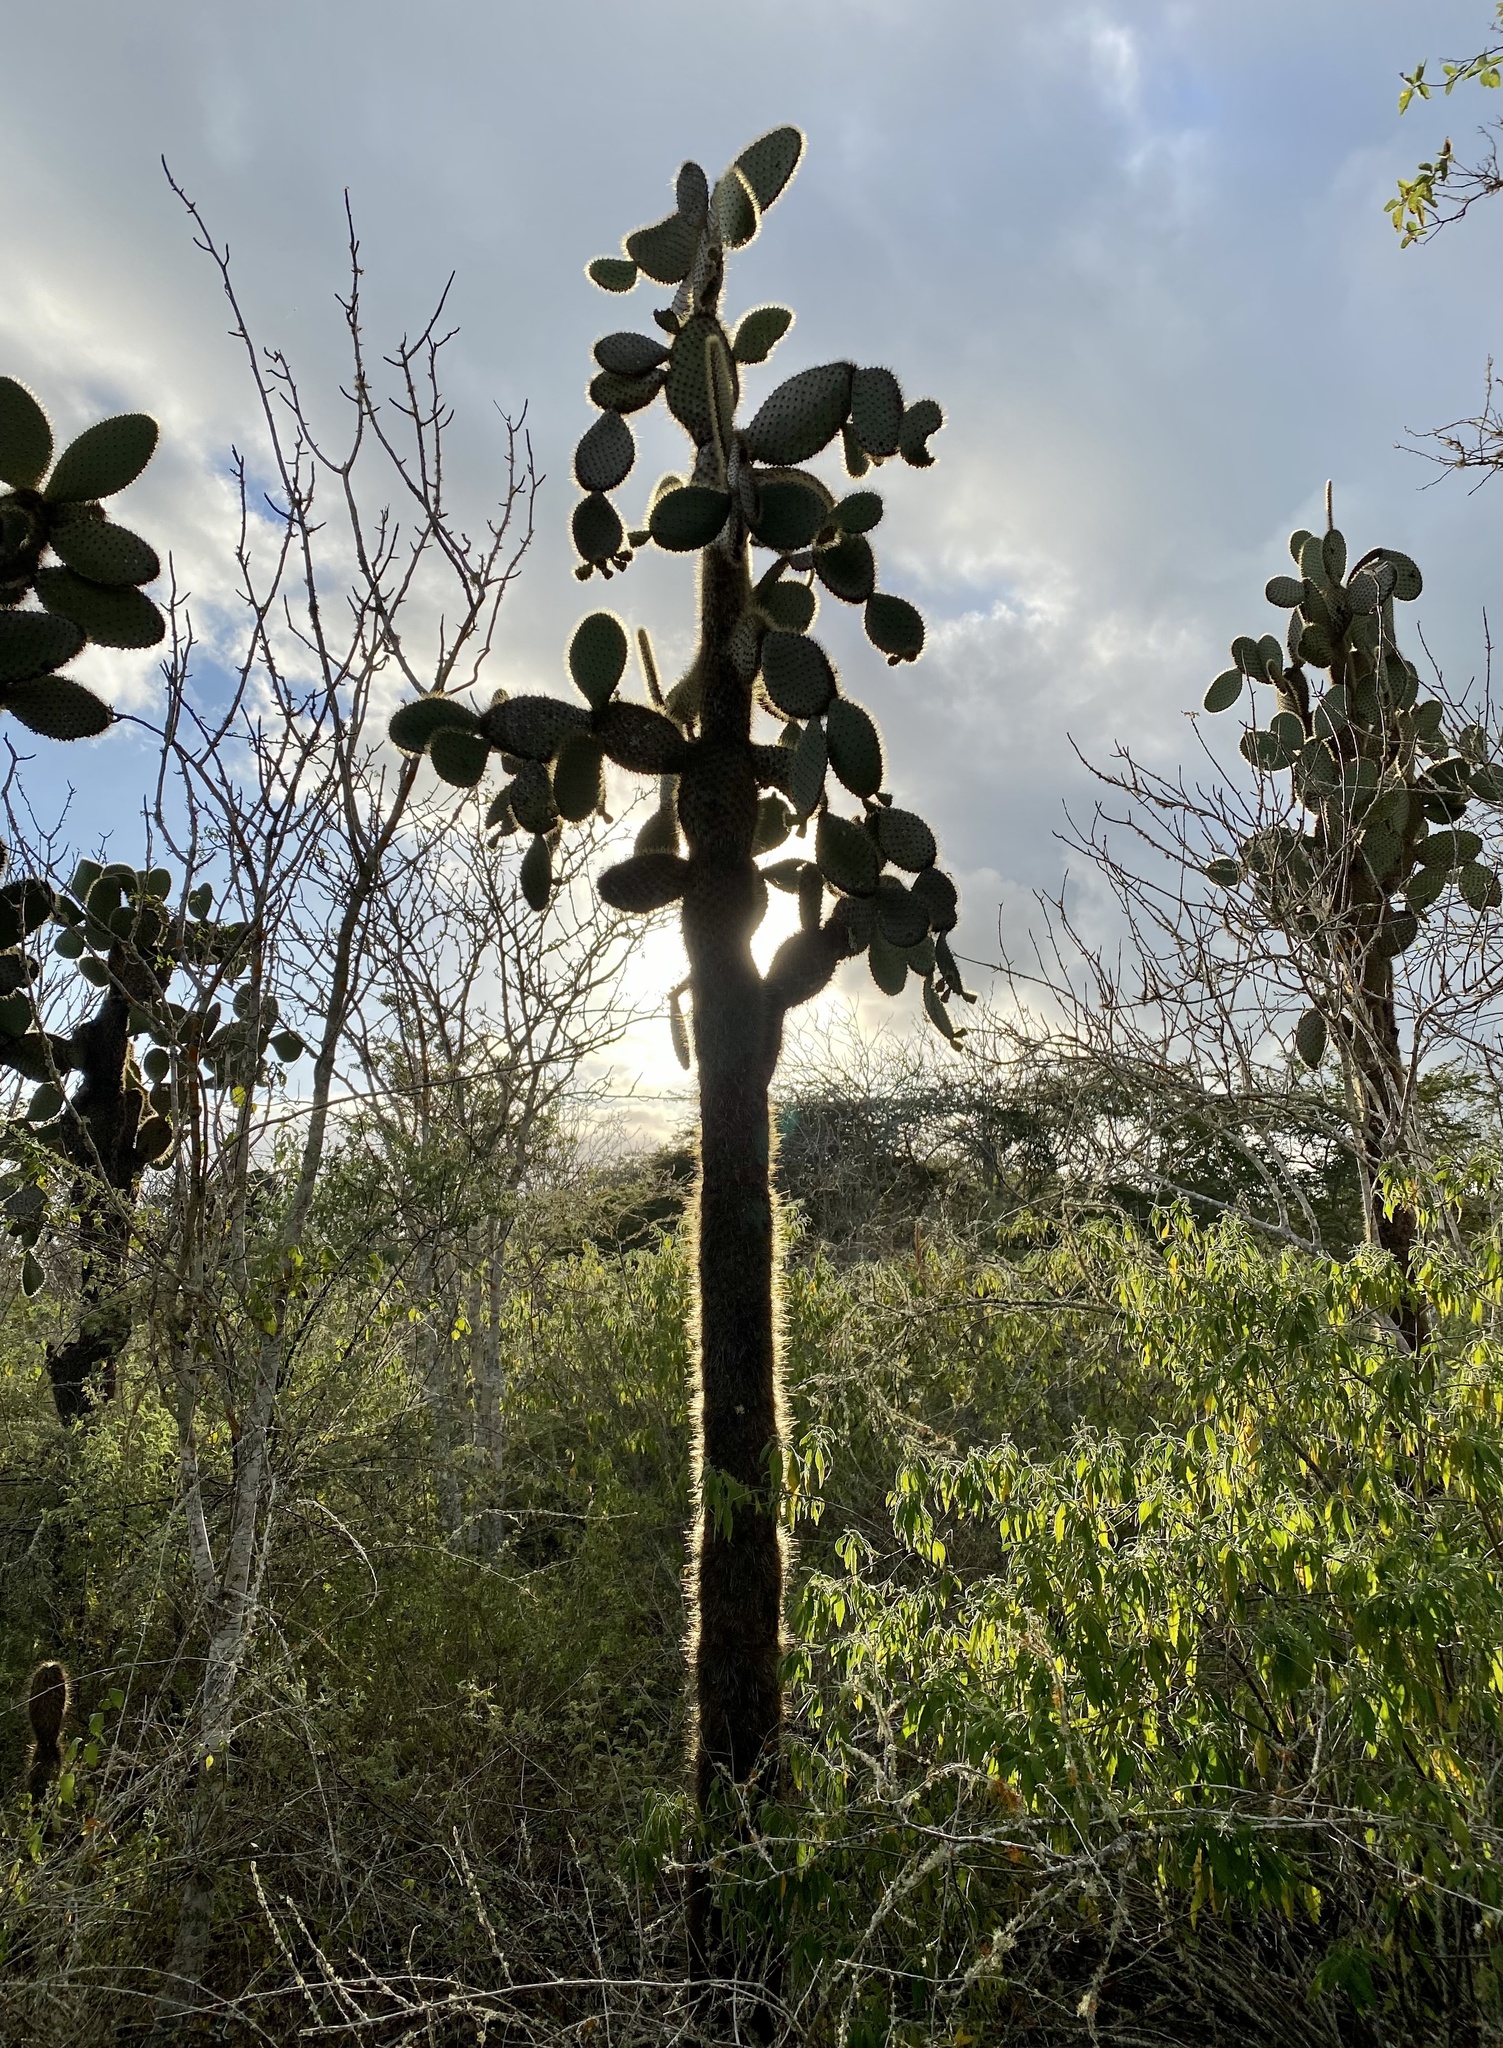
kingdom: Plantae
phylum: Tracheophyta
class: Magnoliopsida
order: Caryophyllales
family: Cactaceae
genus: Opuntia
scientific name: Opuntia galapageia
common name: Galápagos prickly pear
